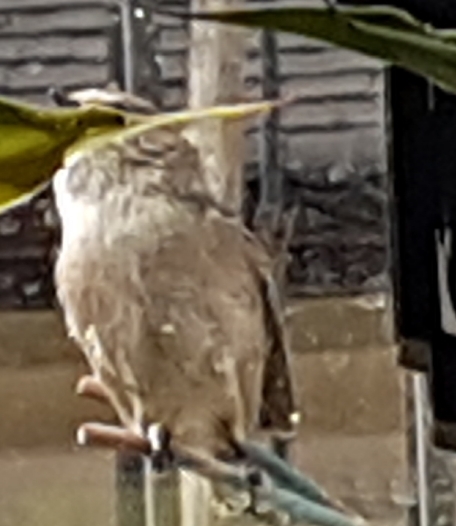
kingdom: Animalia
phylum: Chordata
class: Aves
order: Passeriformes
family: Aegithalidae
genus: Psaltriparus
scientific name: Psaltriparus minimus
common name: American bushtit
